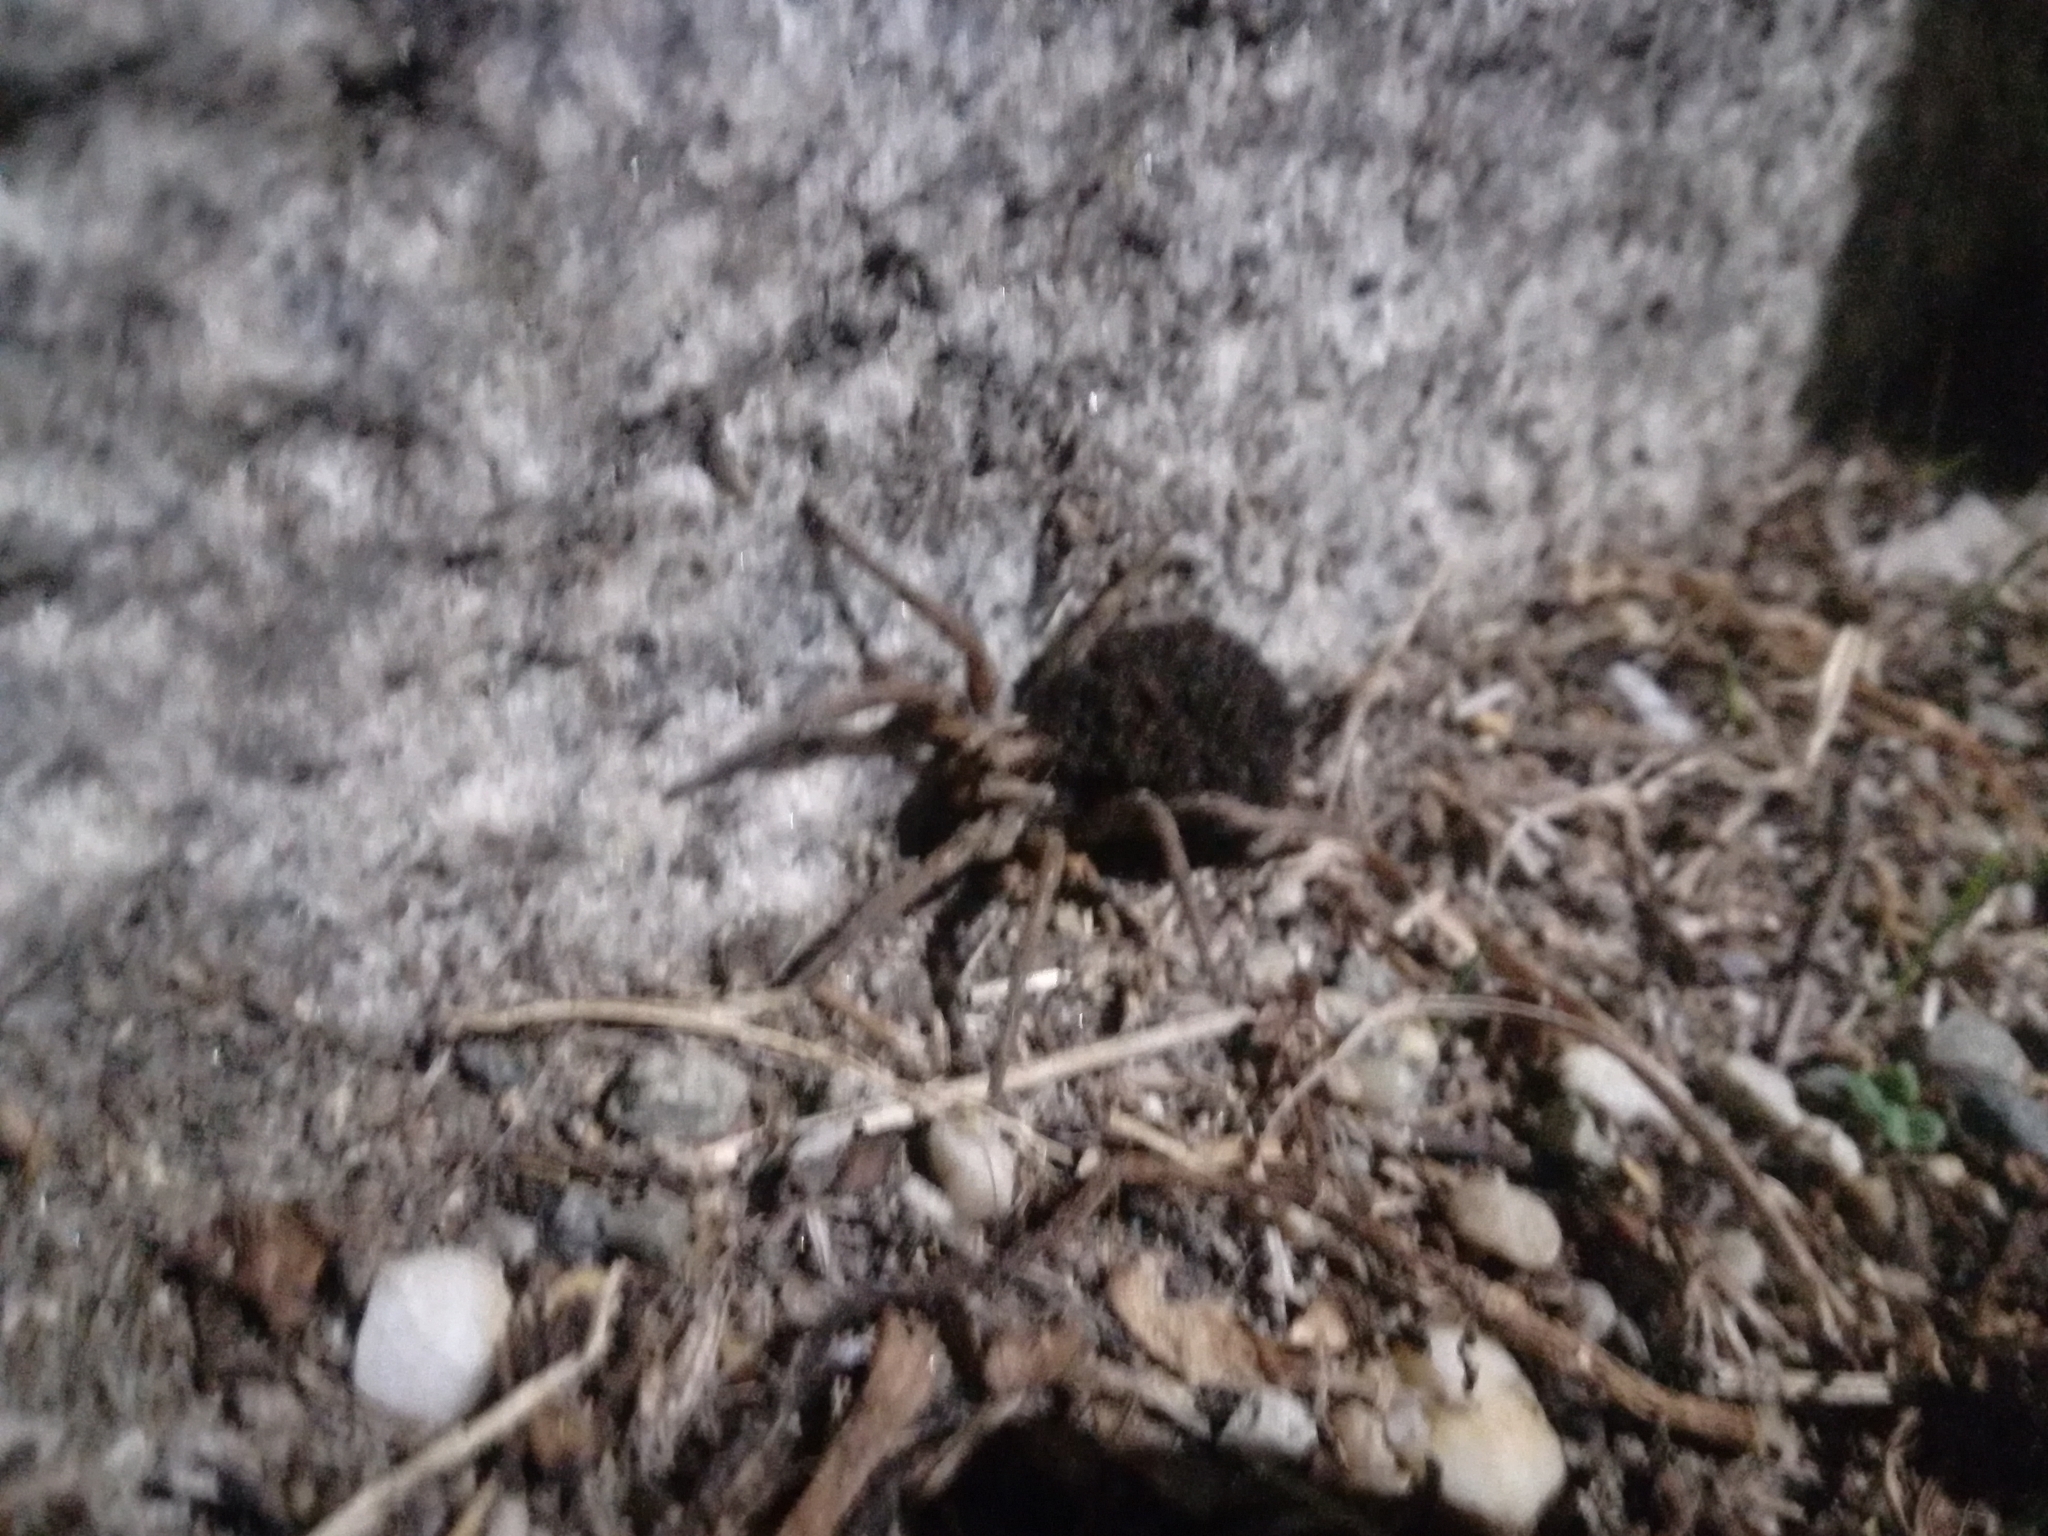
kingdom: Animalia
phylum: Arthropoda
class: Arachnida
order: Araneae
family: Lycosidae
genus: Hogna
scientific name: Hogna radiata
